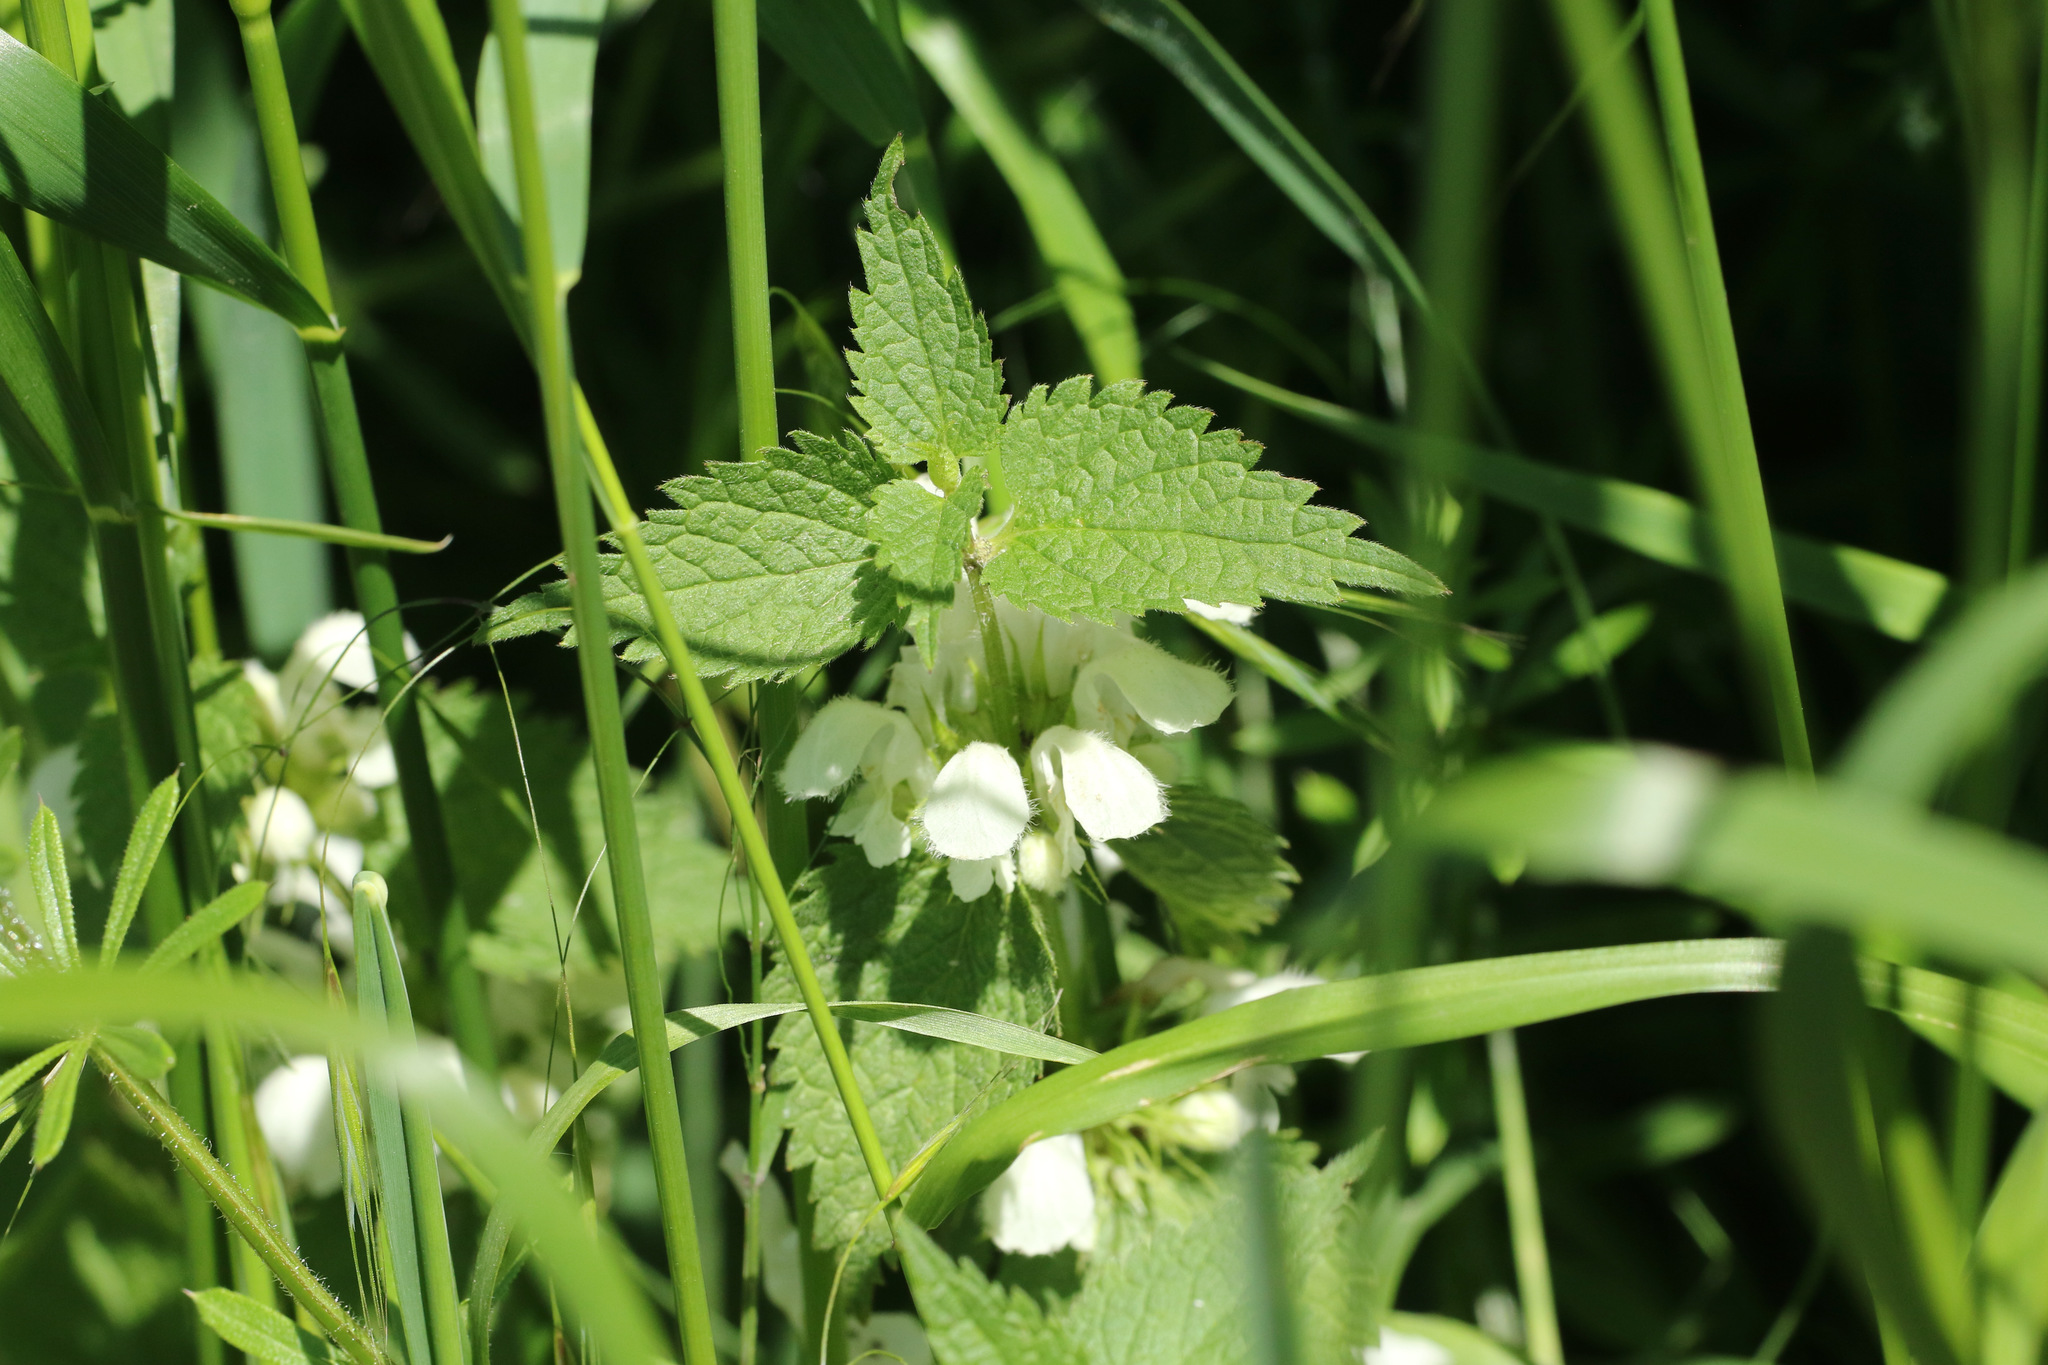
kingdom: Plantae
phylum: Tracheophyta
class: Magnoliopsida
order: Lamiales
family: Lamiaceae
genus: Lamium
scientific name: Lamium album
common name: White dead-nettle
